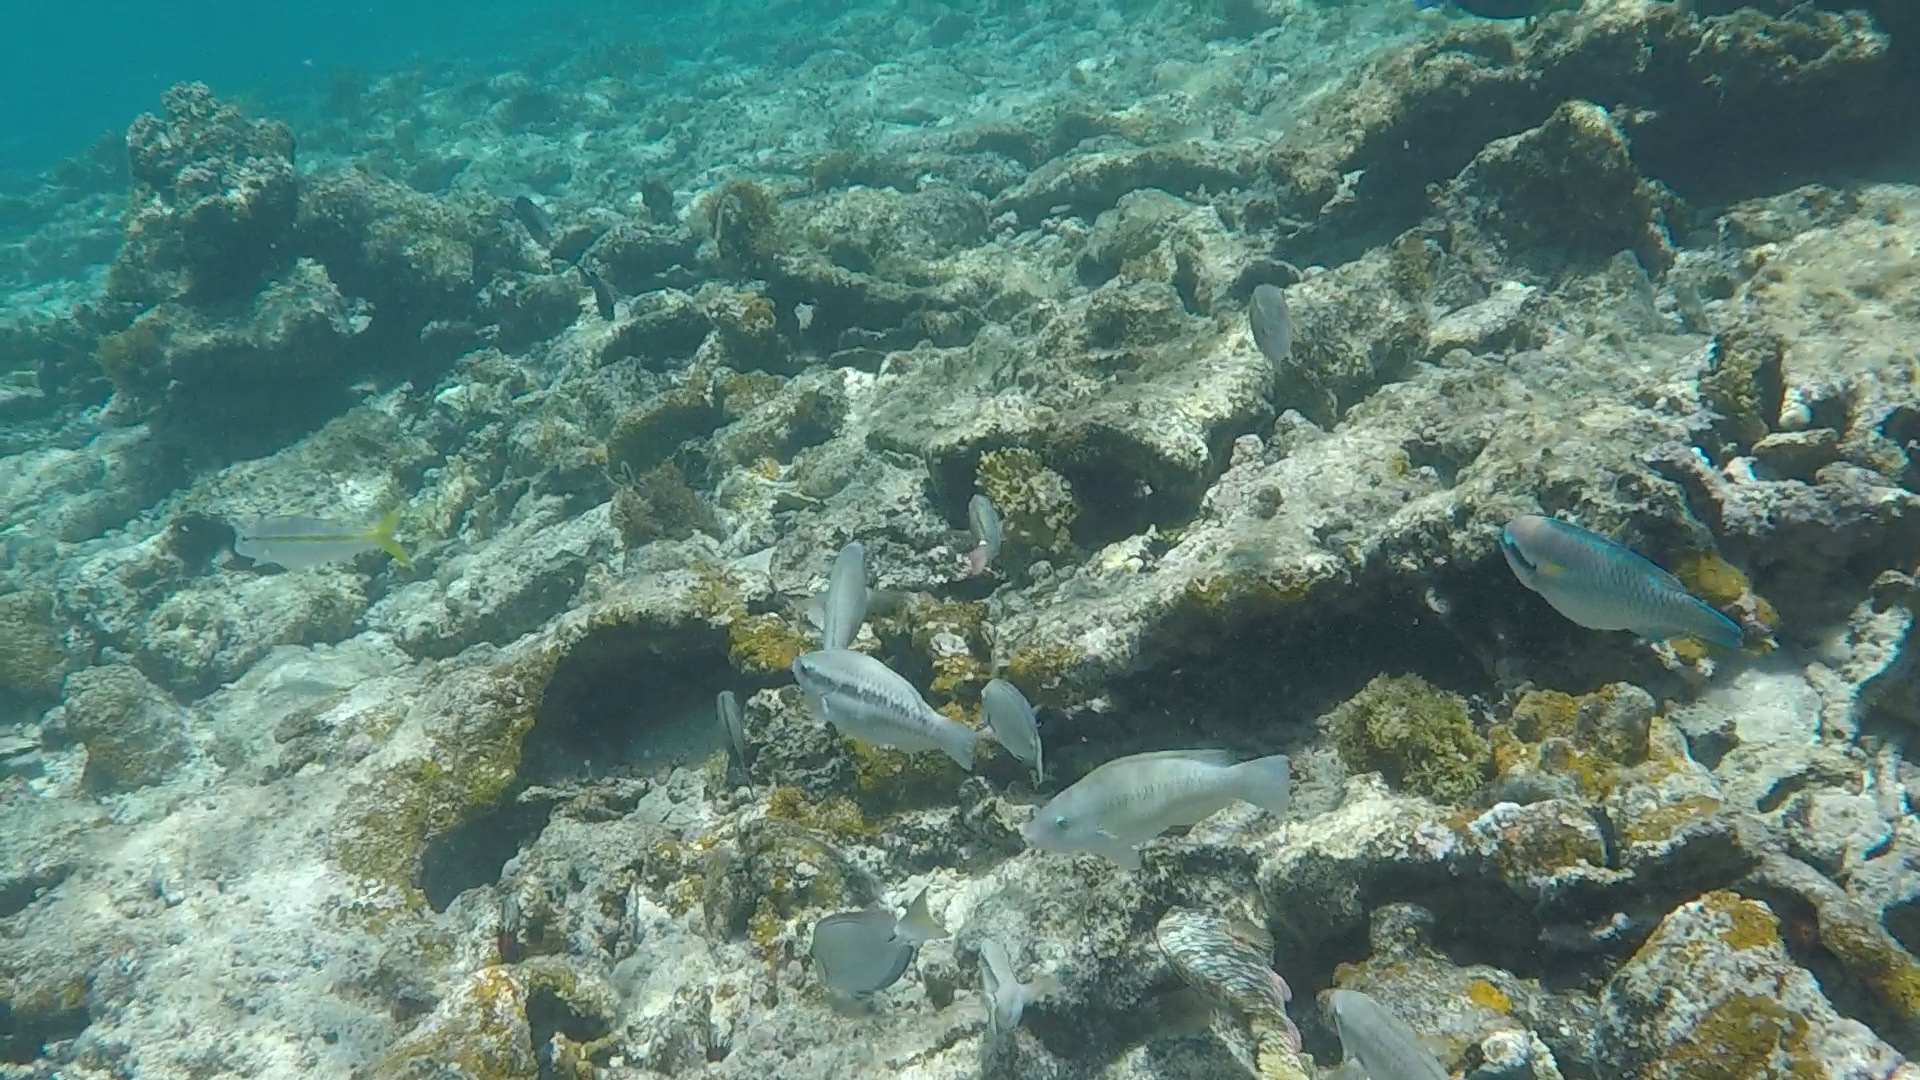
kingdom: Animalia
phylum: Chordata
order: Perciformes
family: Scaridae
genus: Scarus
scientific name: Scarus iseri
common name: Striped parrotfish
